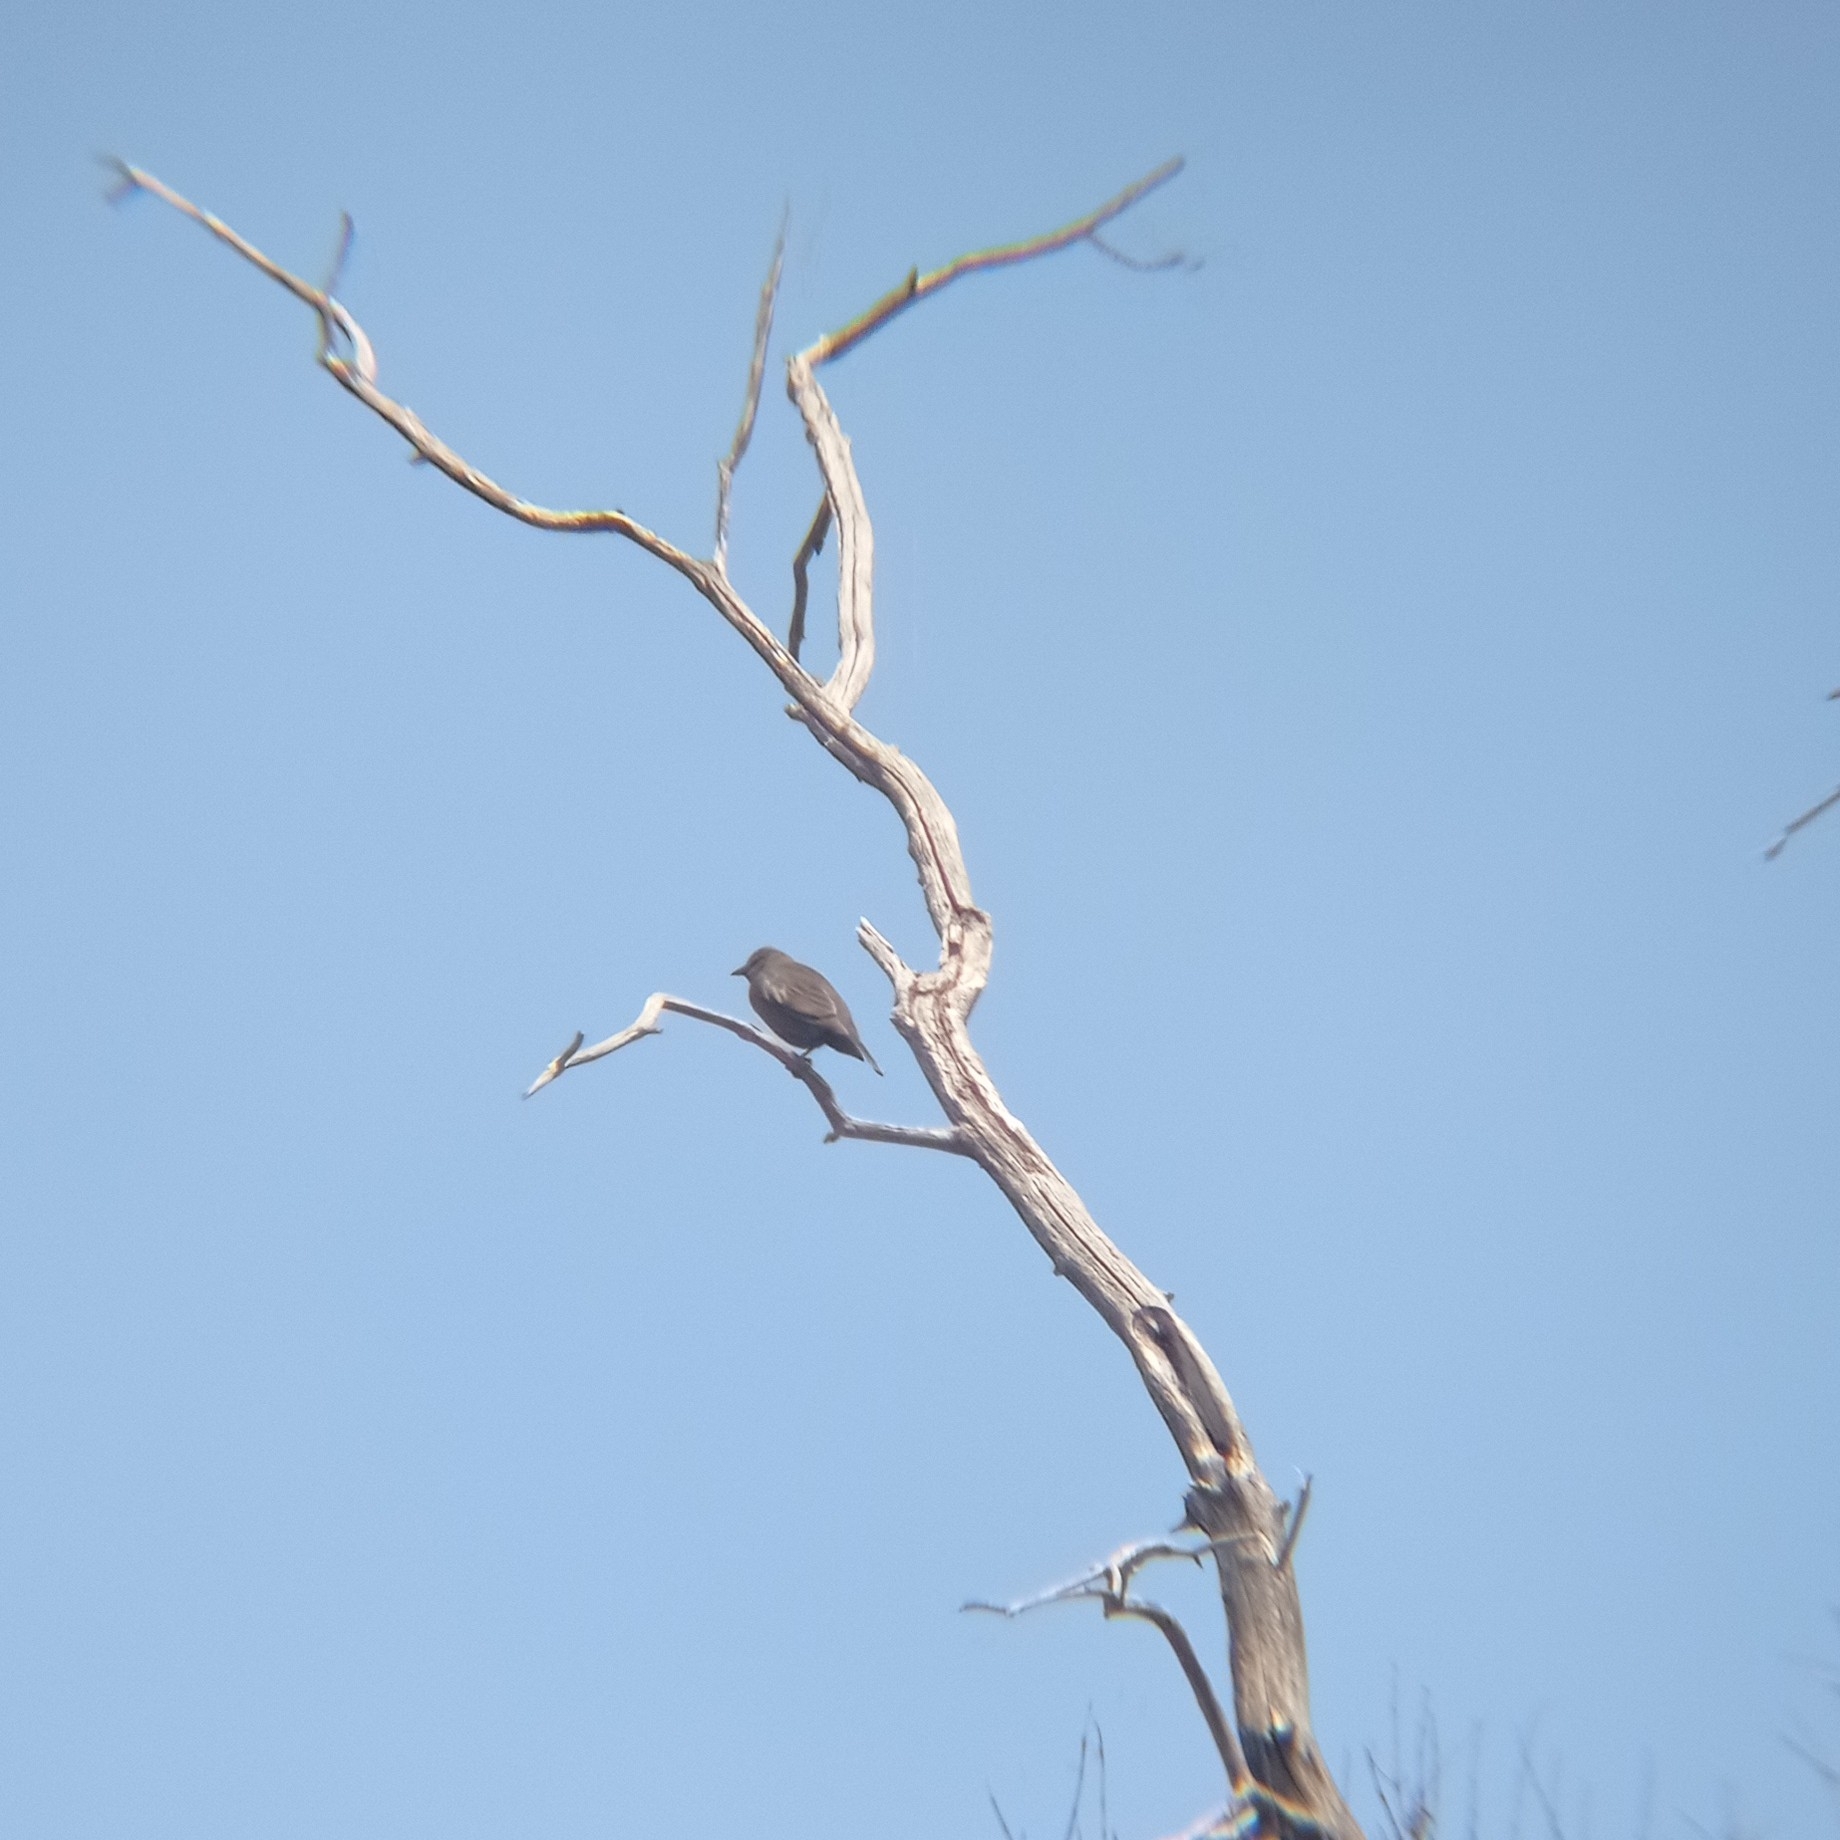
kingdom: Animalia
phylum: Chordata
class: Aves
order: Passeriformes
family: Icteridae
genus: Molothrus
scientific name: Molothrus bonariensis
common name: Shiny cowbird
